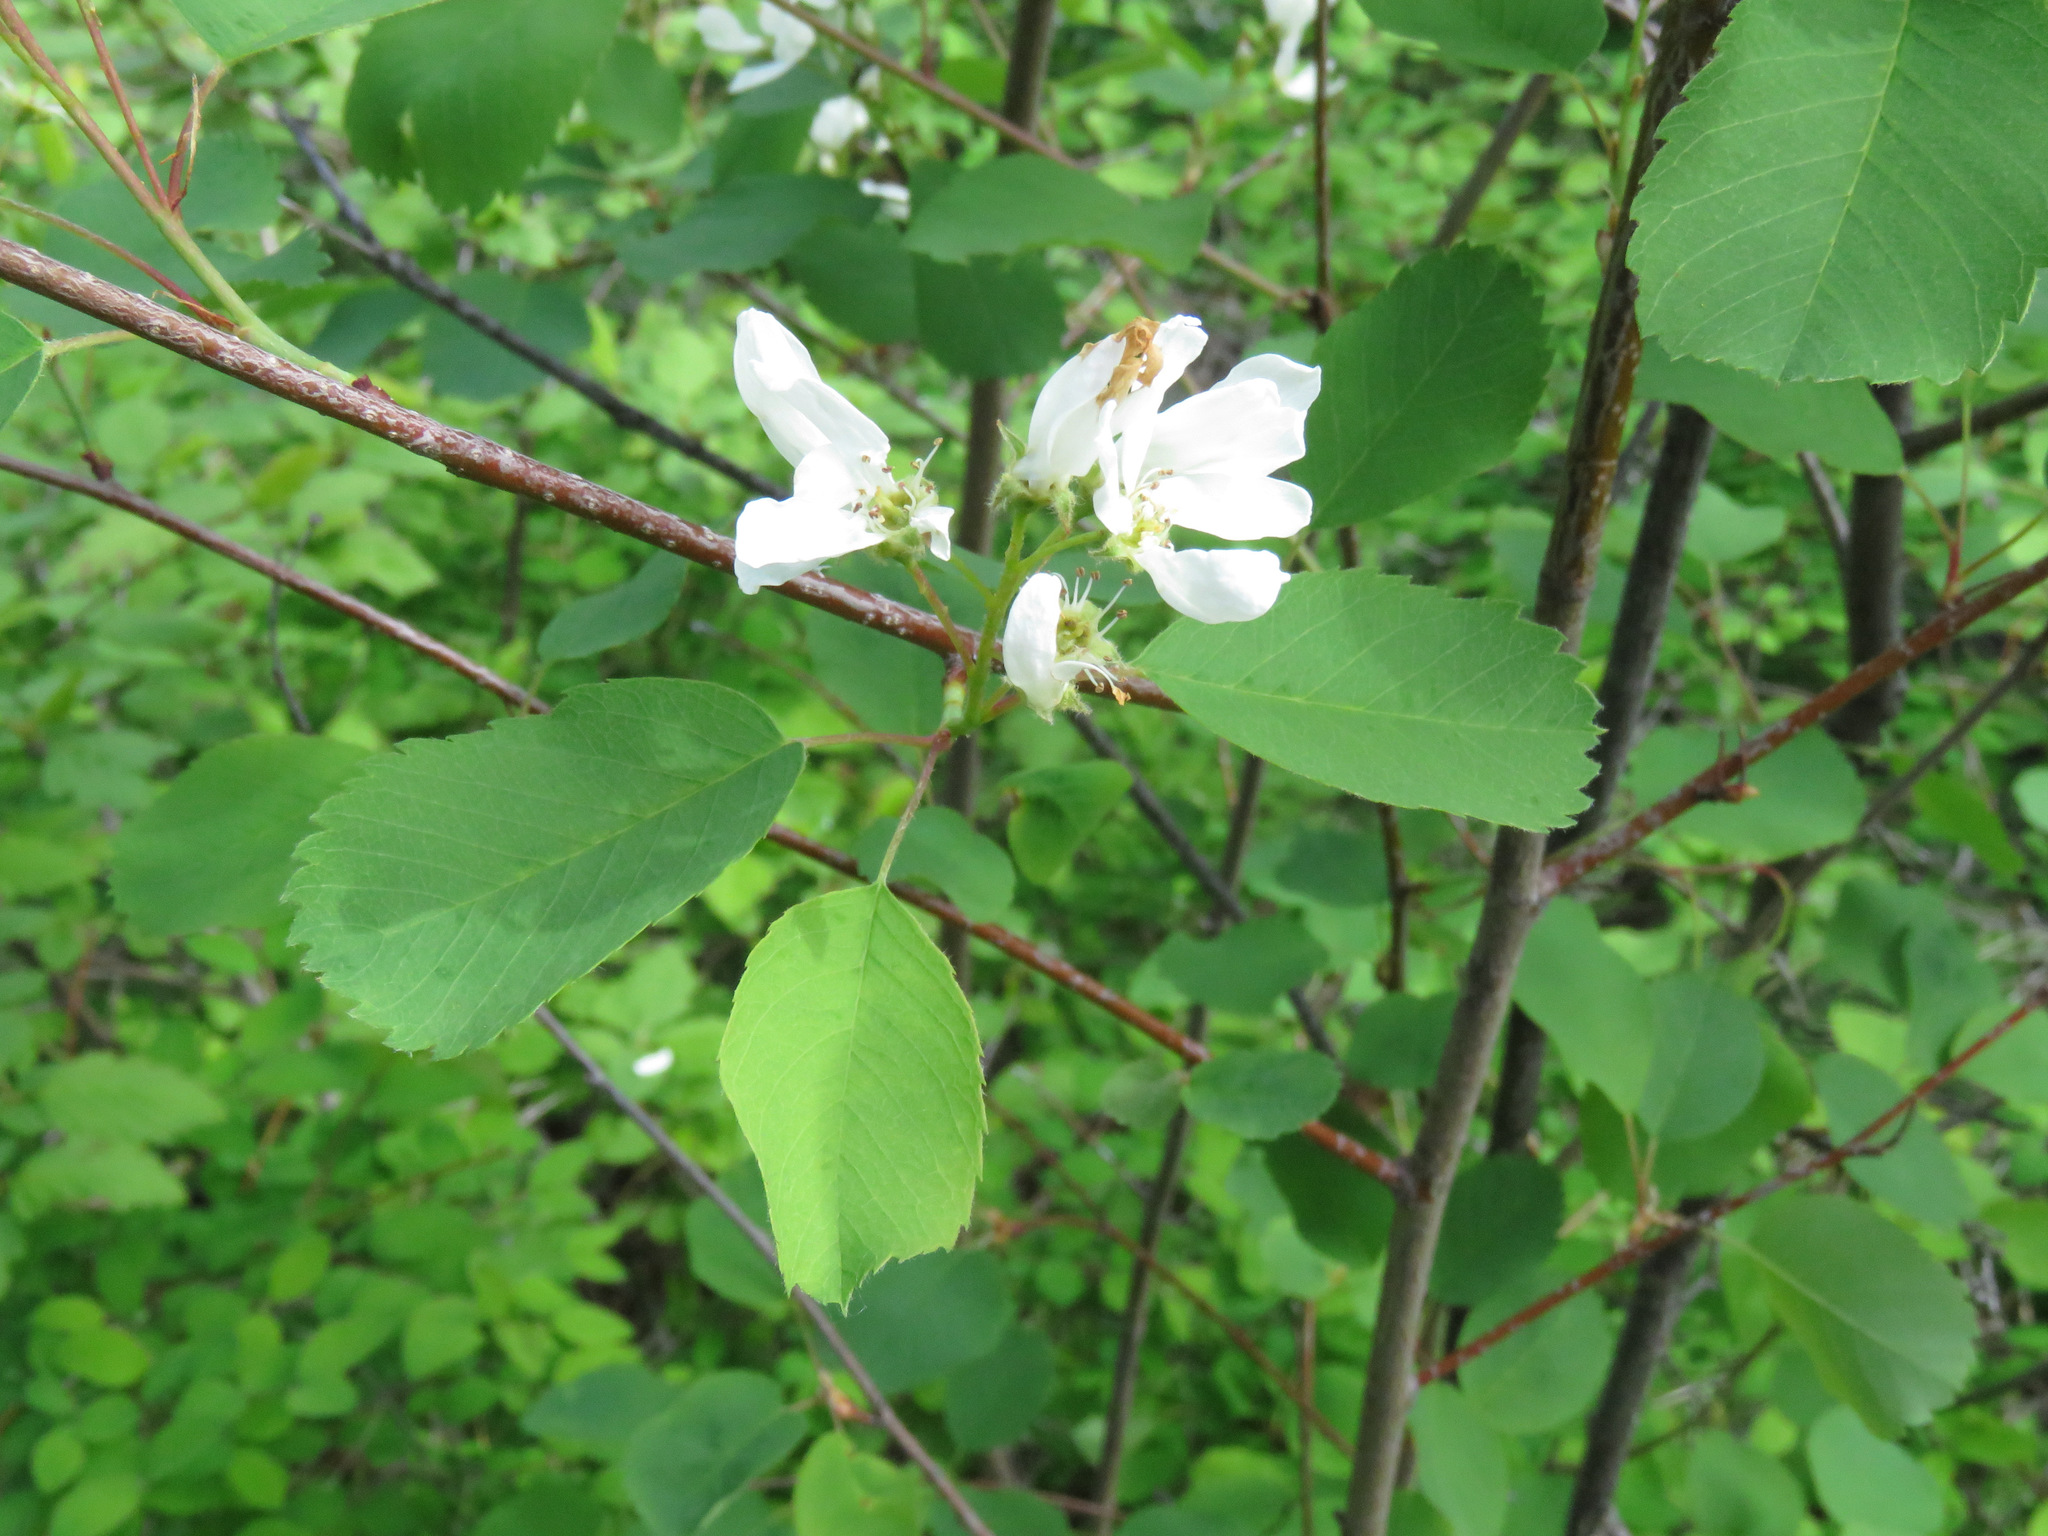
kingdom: Plantae
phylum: Tracheophyta
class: Magnoliopsida
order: Rosales
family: Rosaceae
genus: Amelanchier
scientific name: Amelanchier alnifolia
